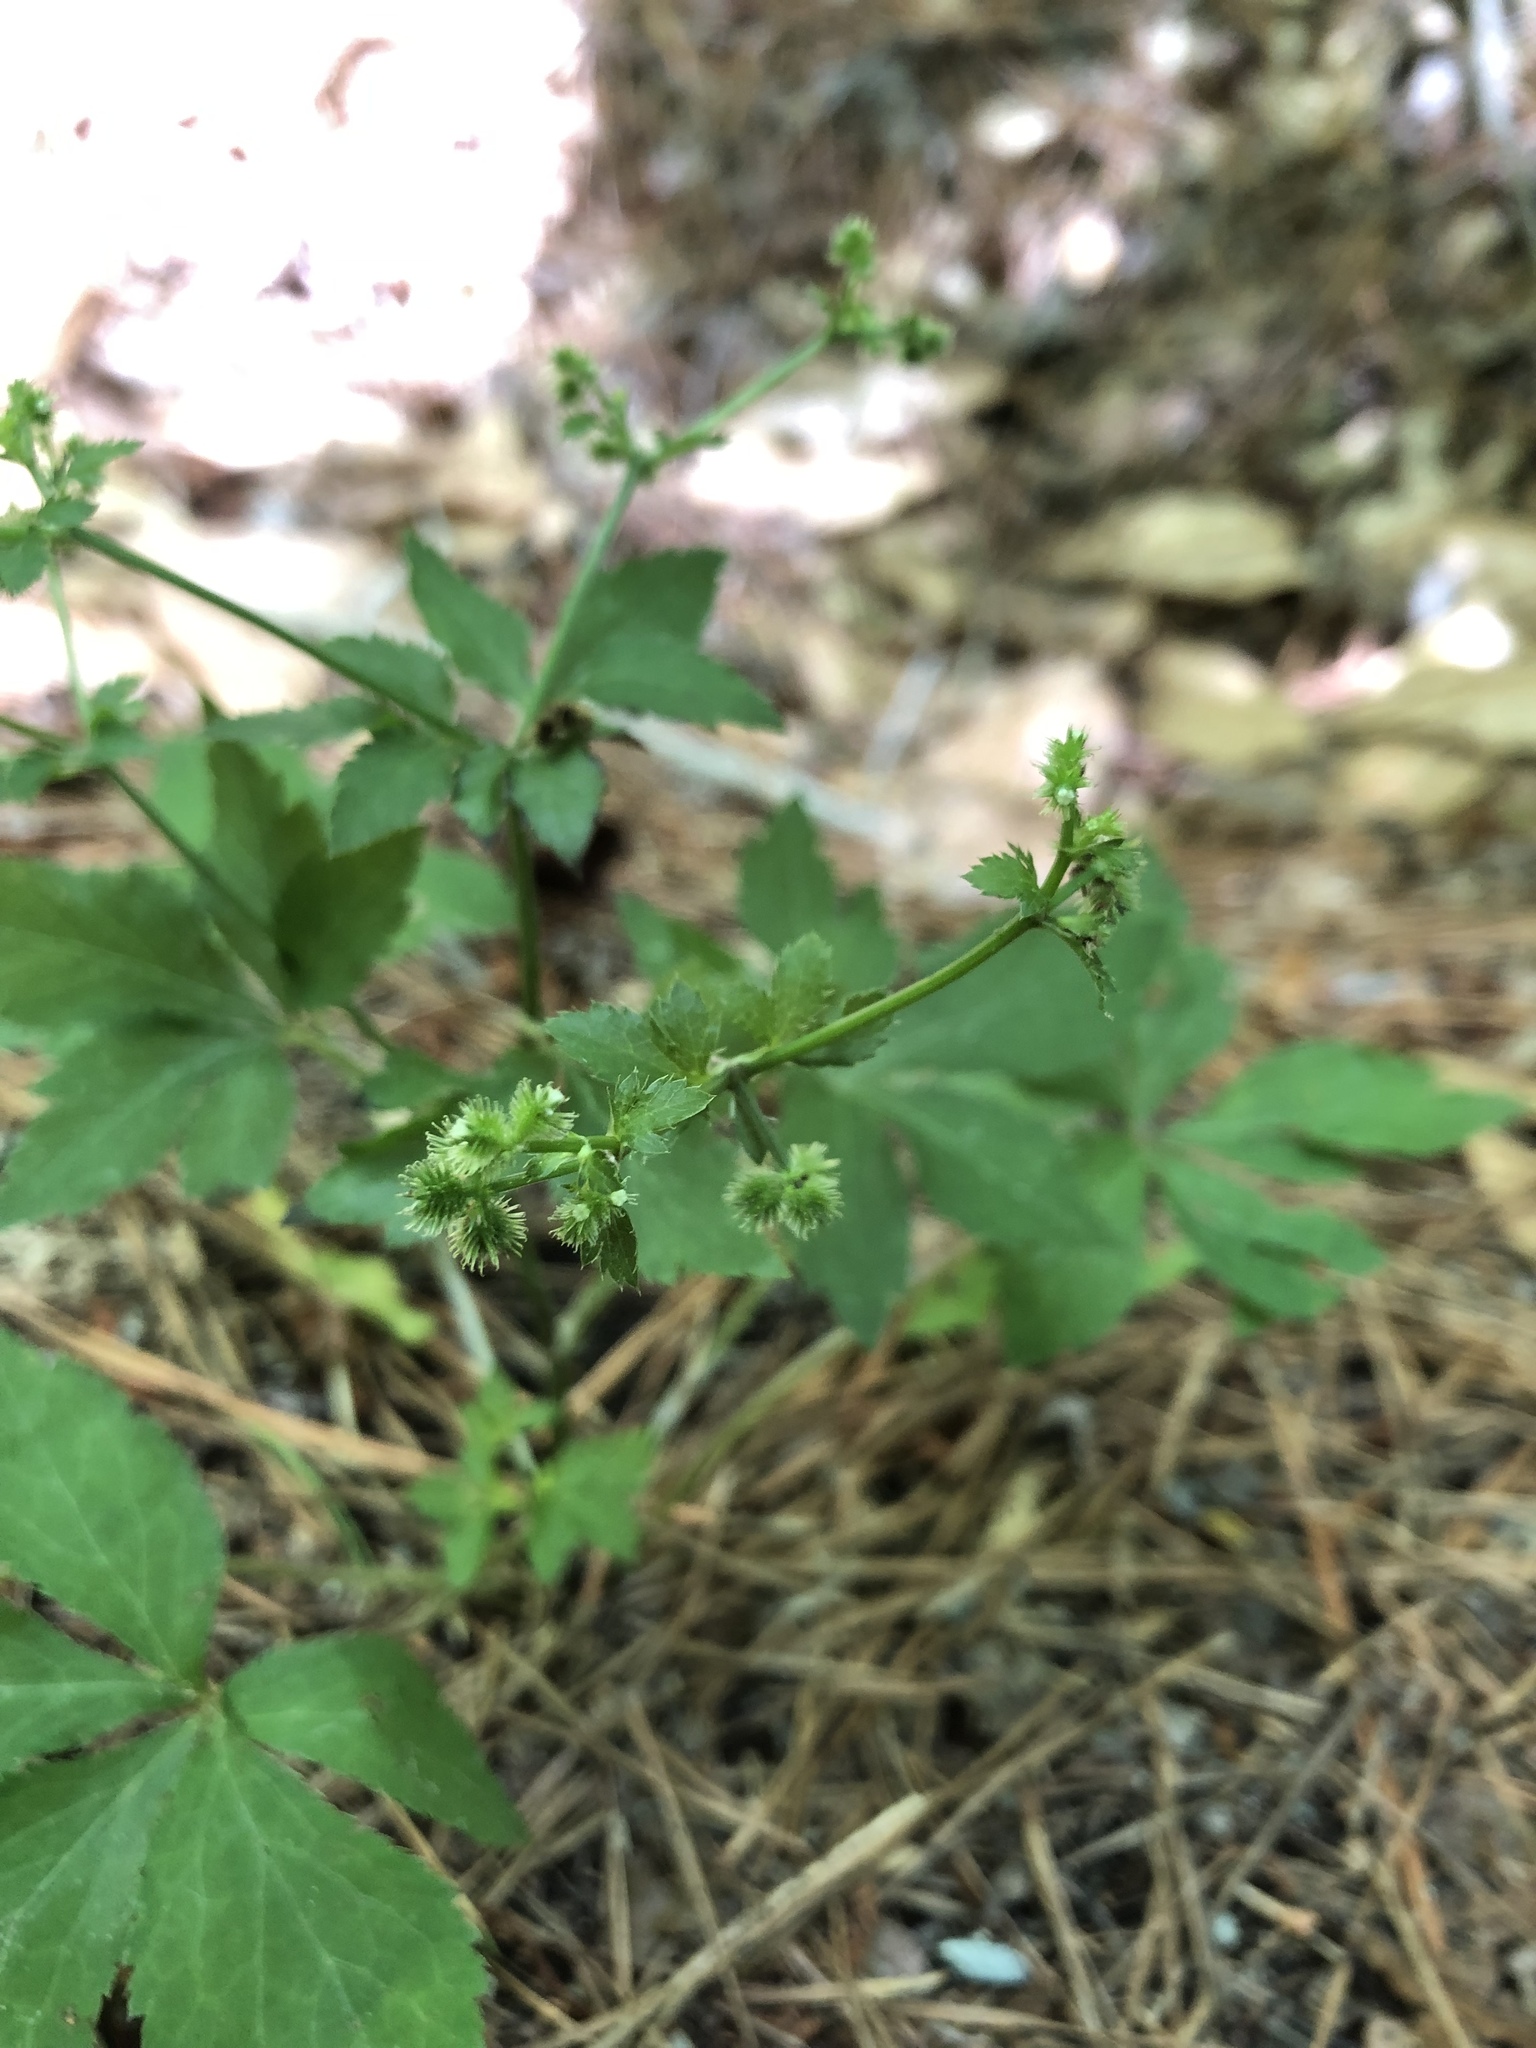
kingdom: Plantae
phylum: Tracheophyta
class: Magnoliopsida
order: Apiales
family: Apiaceae
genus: Sanicula
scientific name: Sanicula canadensis
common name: Canada sanicle
